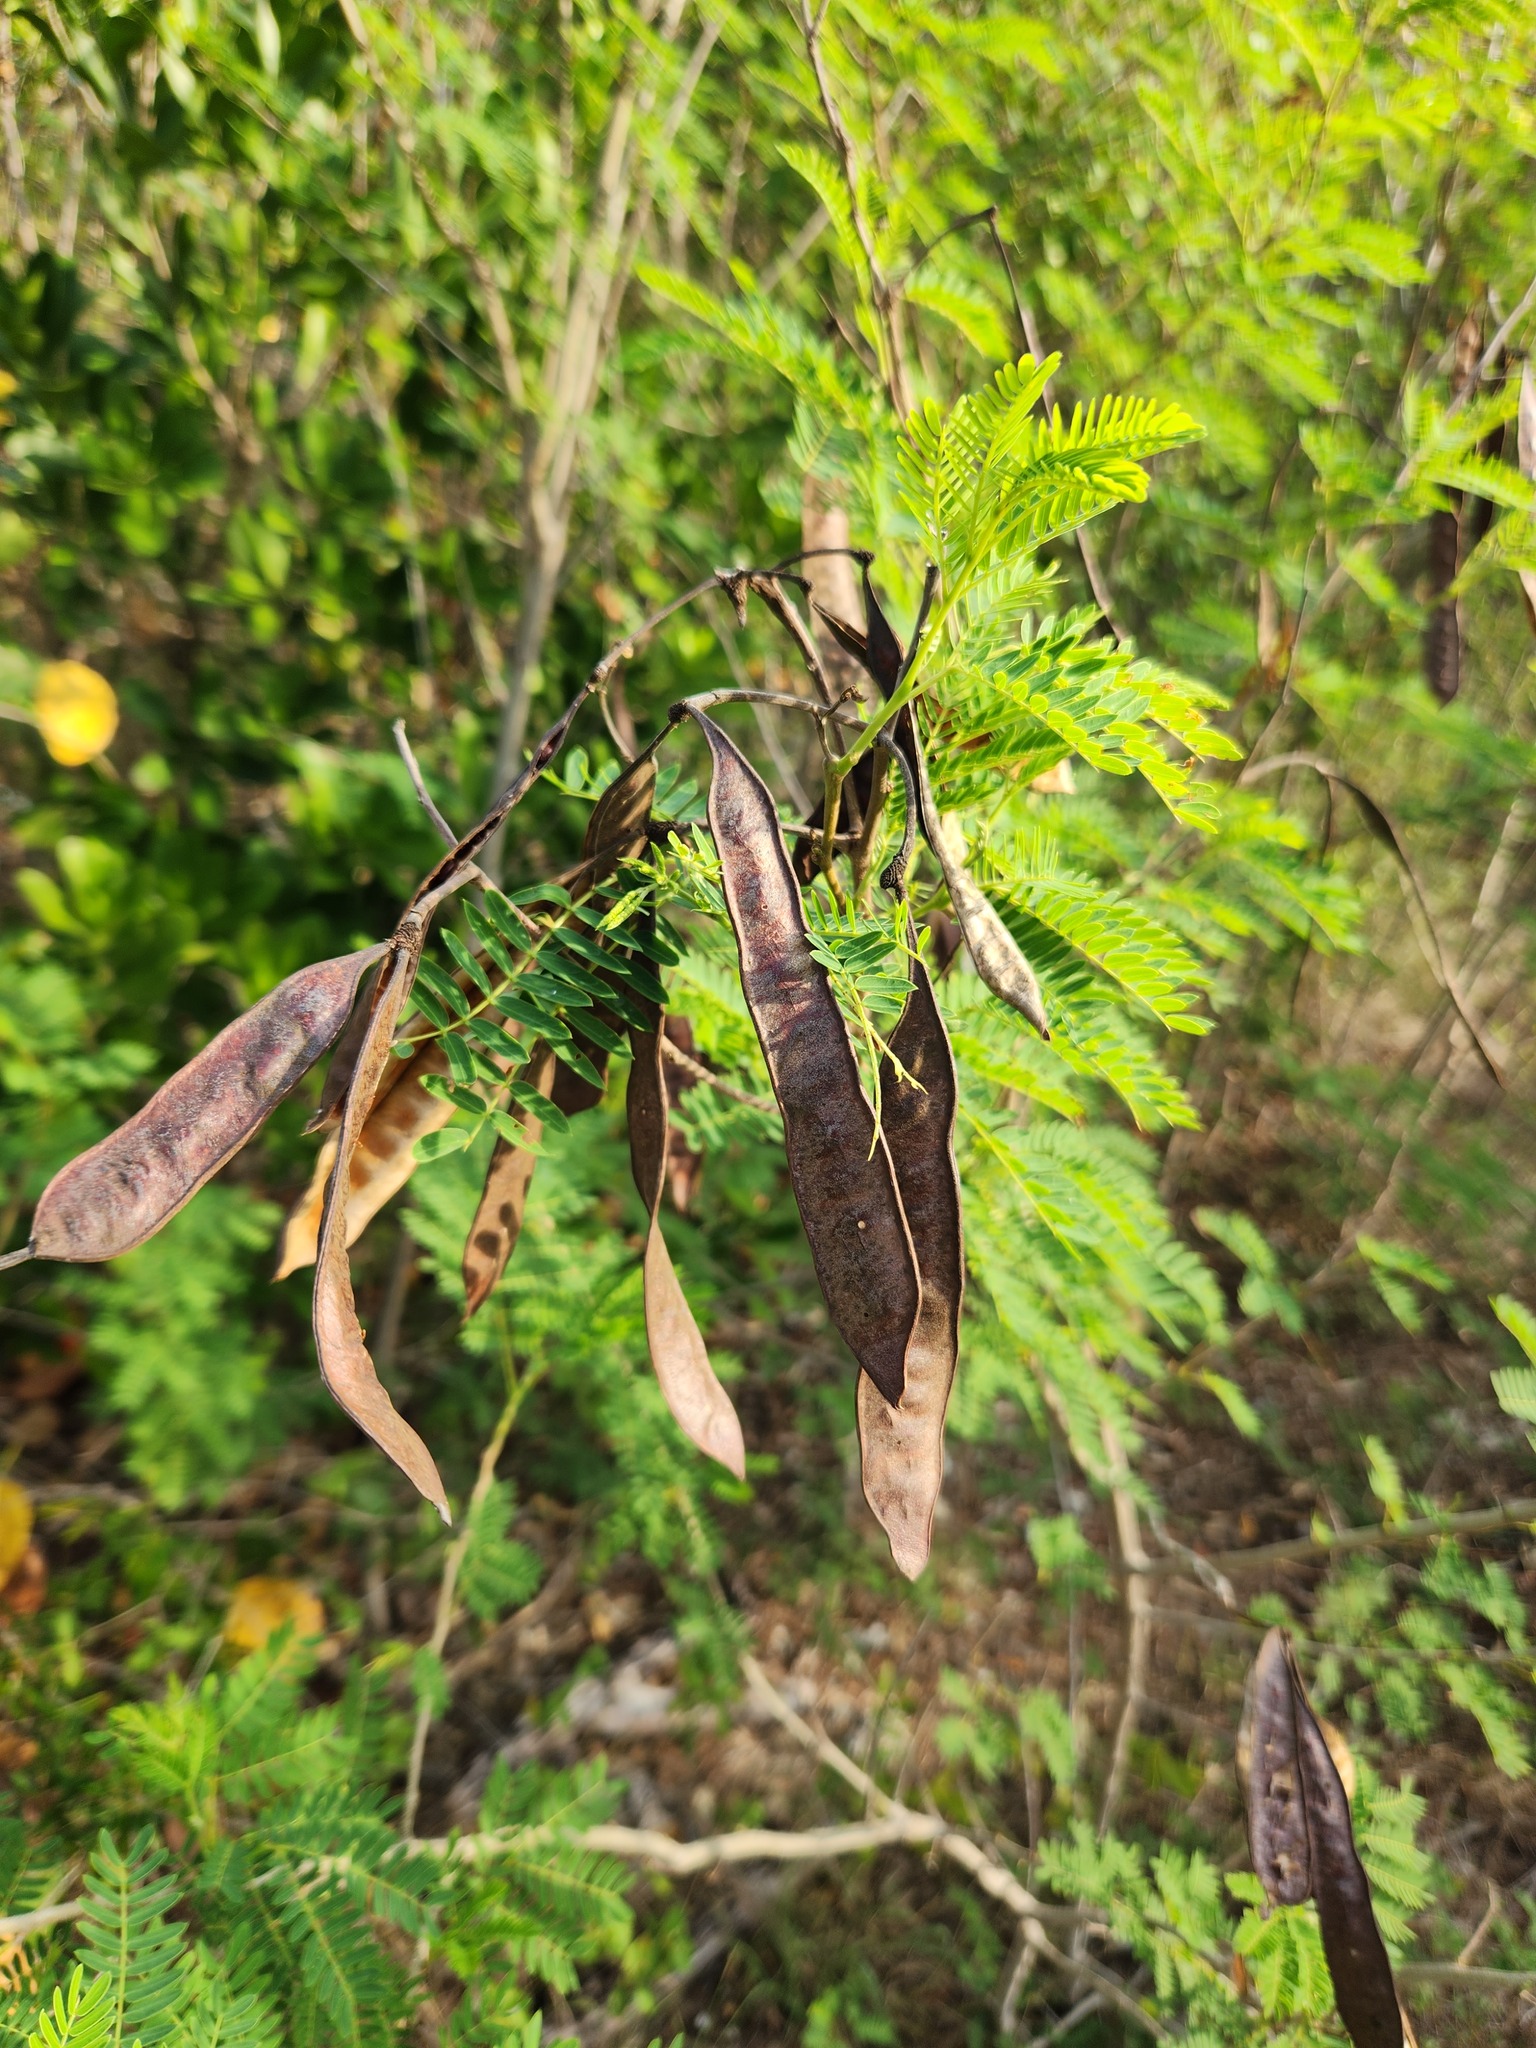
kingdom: Plantae
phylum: Tracheophyta
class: Magnoliopsida
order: Fabales
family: Fabaceae
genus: Leucaena
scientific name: Leucaena leucocephala
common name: White leadtree
